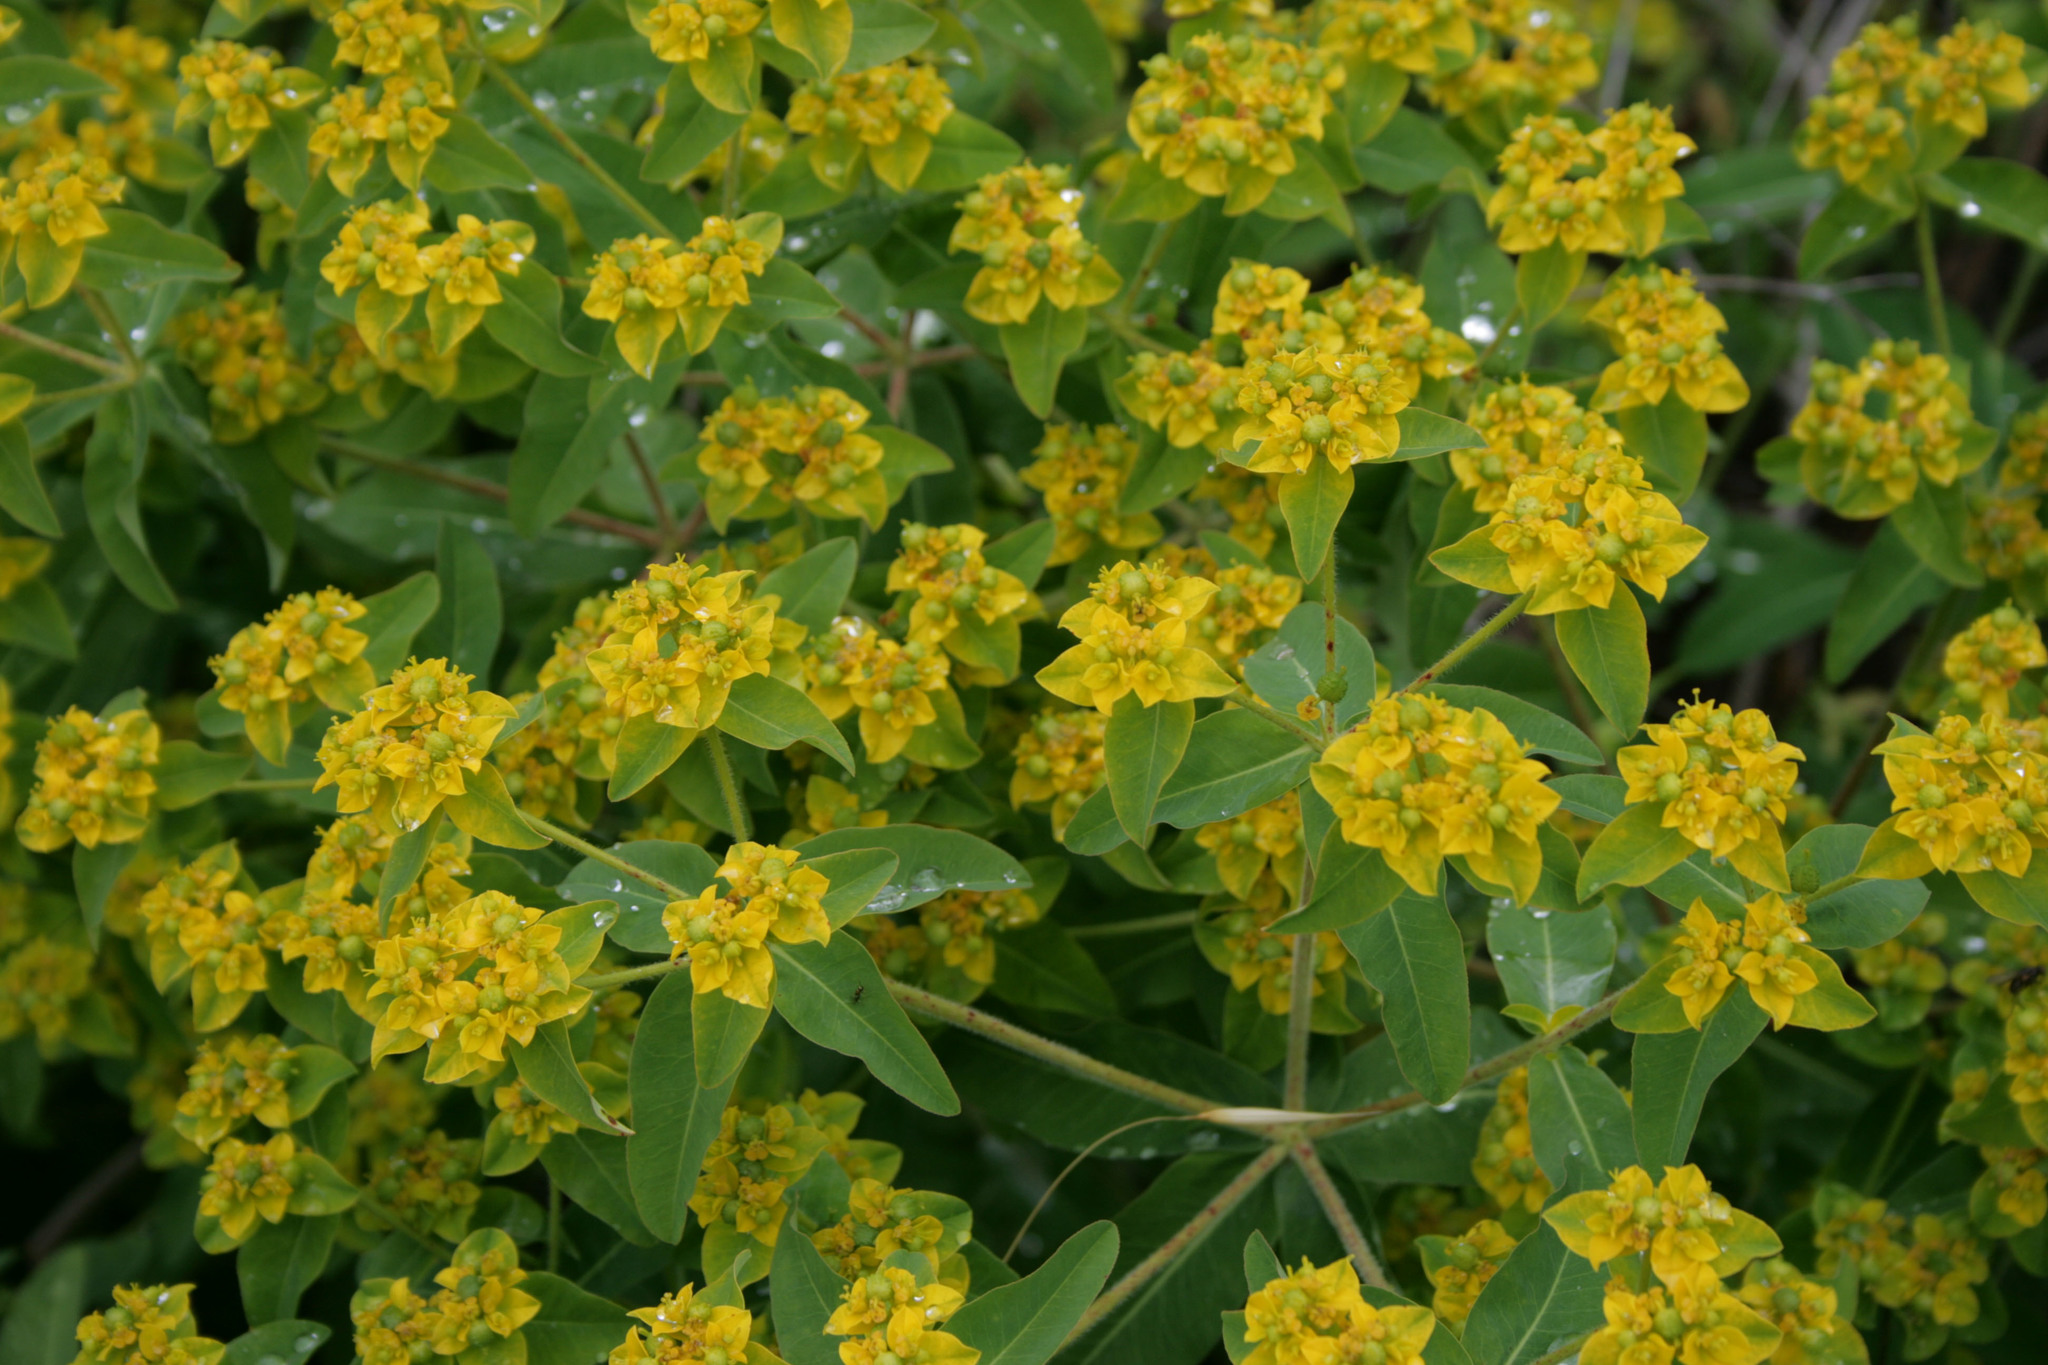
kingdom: Plantae
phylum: Tracheophyta
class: Magnoliopsida
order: Malpighiales
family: Euphorbiaceae
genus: Euphorbia
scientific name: Euphorbia oblongata
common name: Balkan spurge
